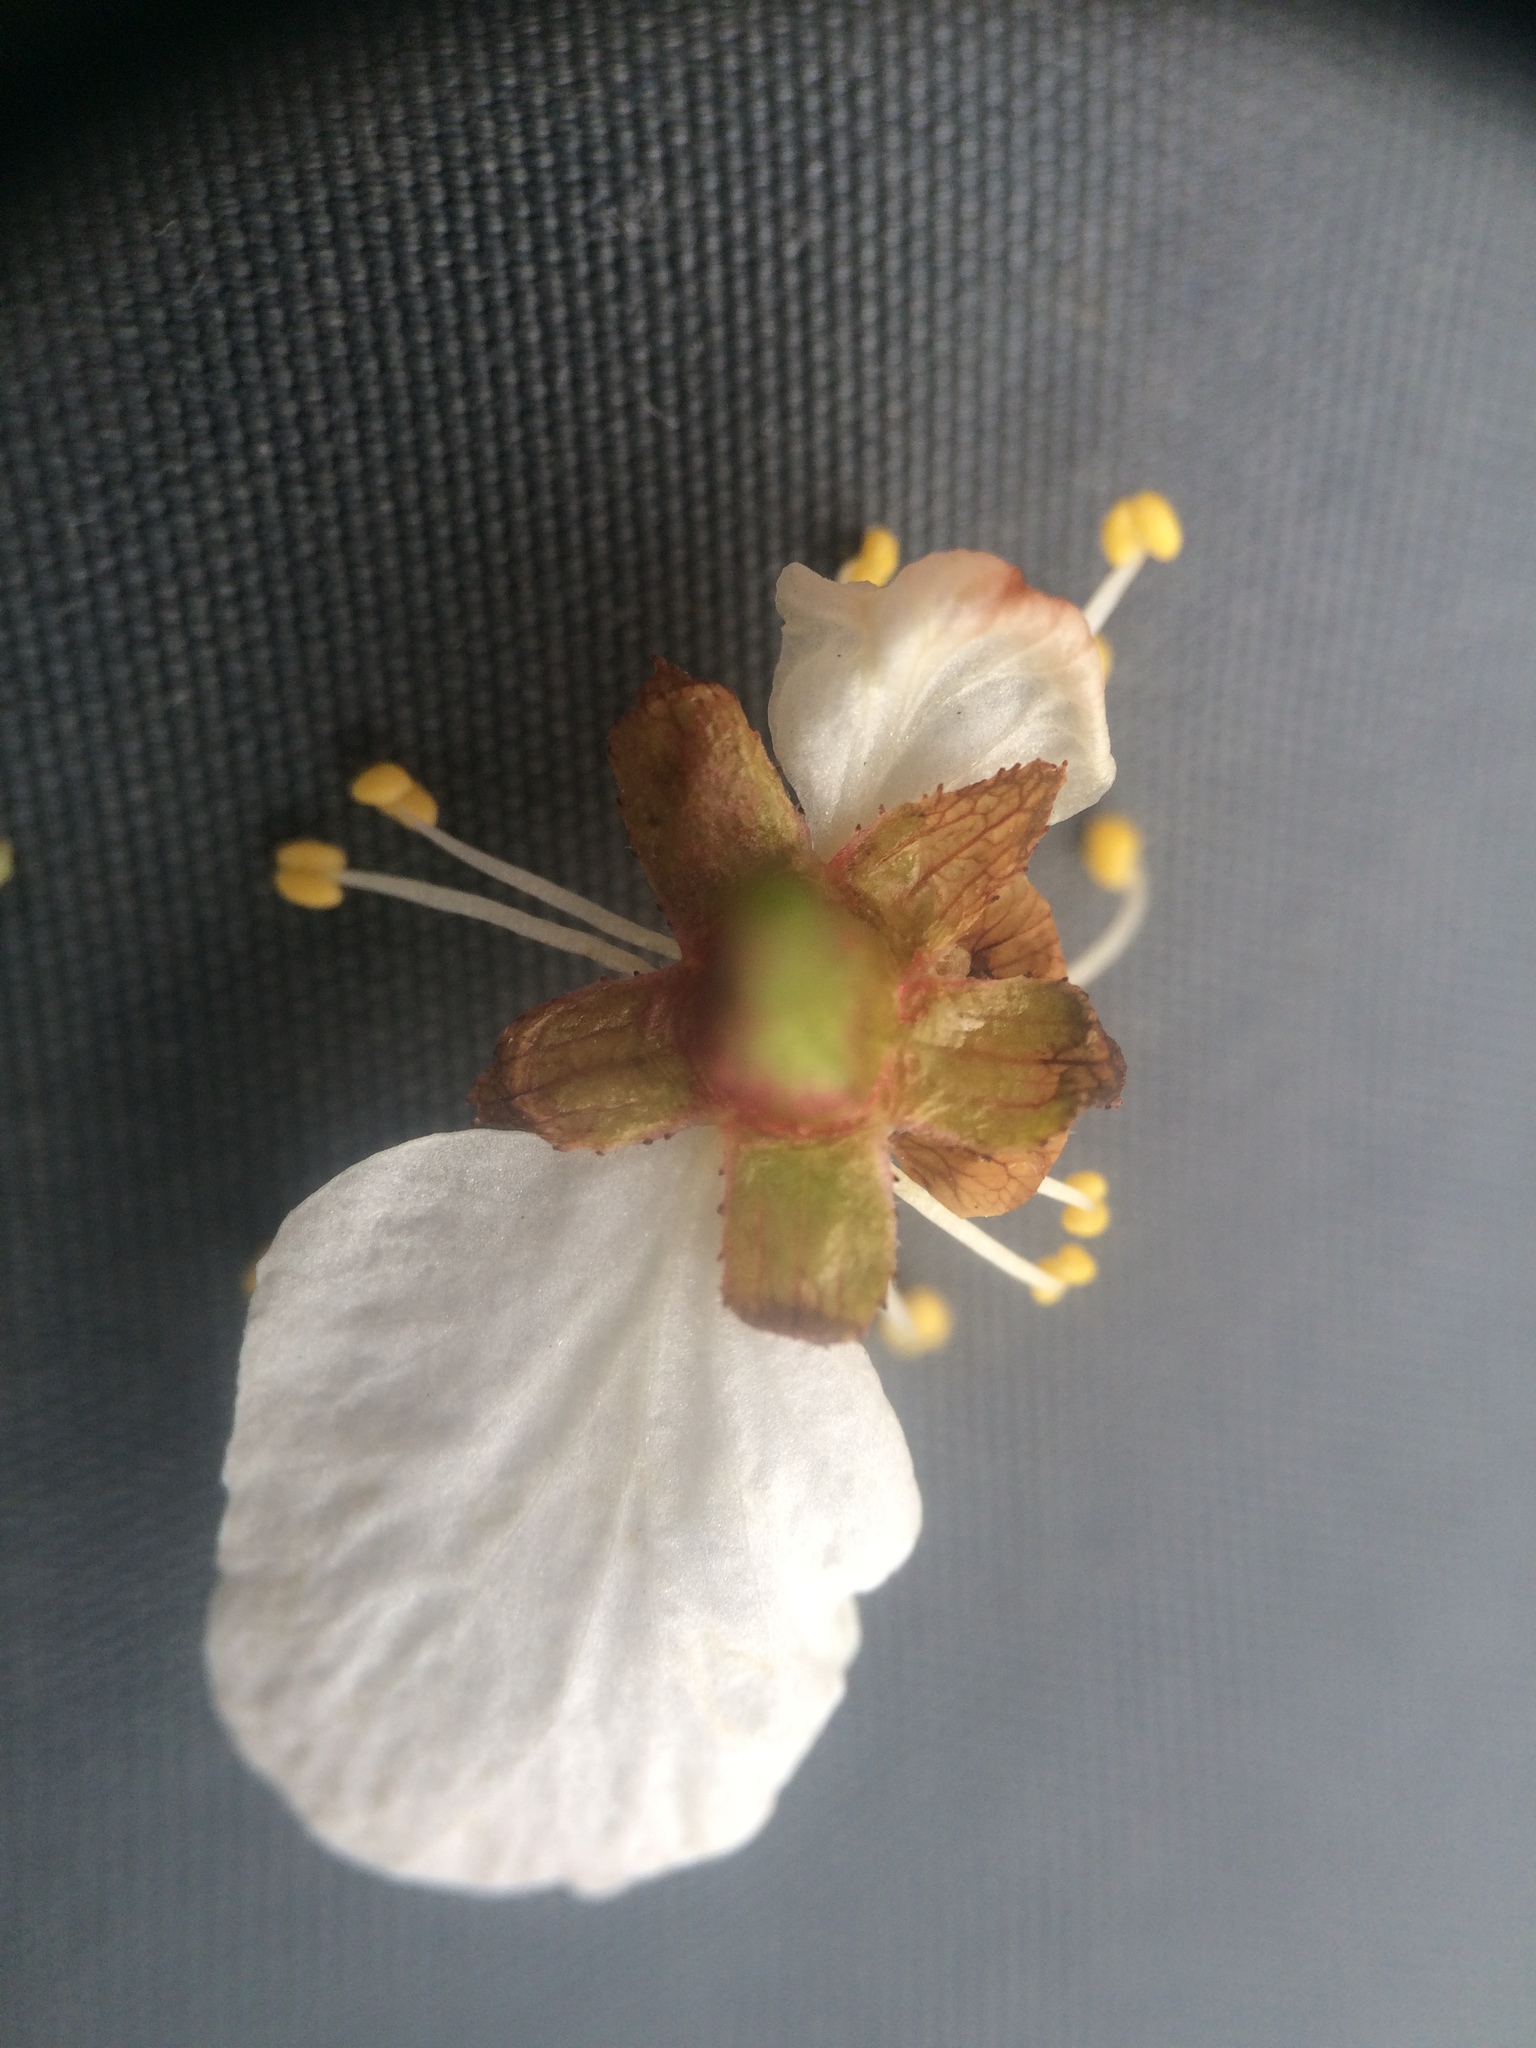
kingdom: Plantae
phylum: Tracheophyta
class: Magnoliopsida
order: Rosales
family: Rosaceae
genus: Prunus
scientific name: Prunus nigra
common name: Black plum
